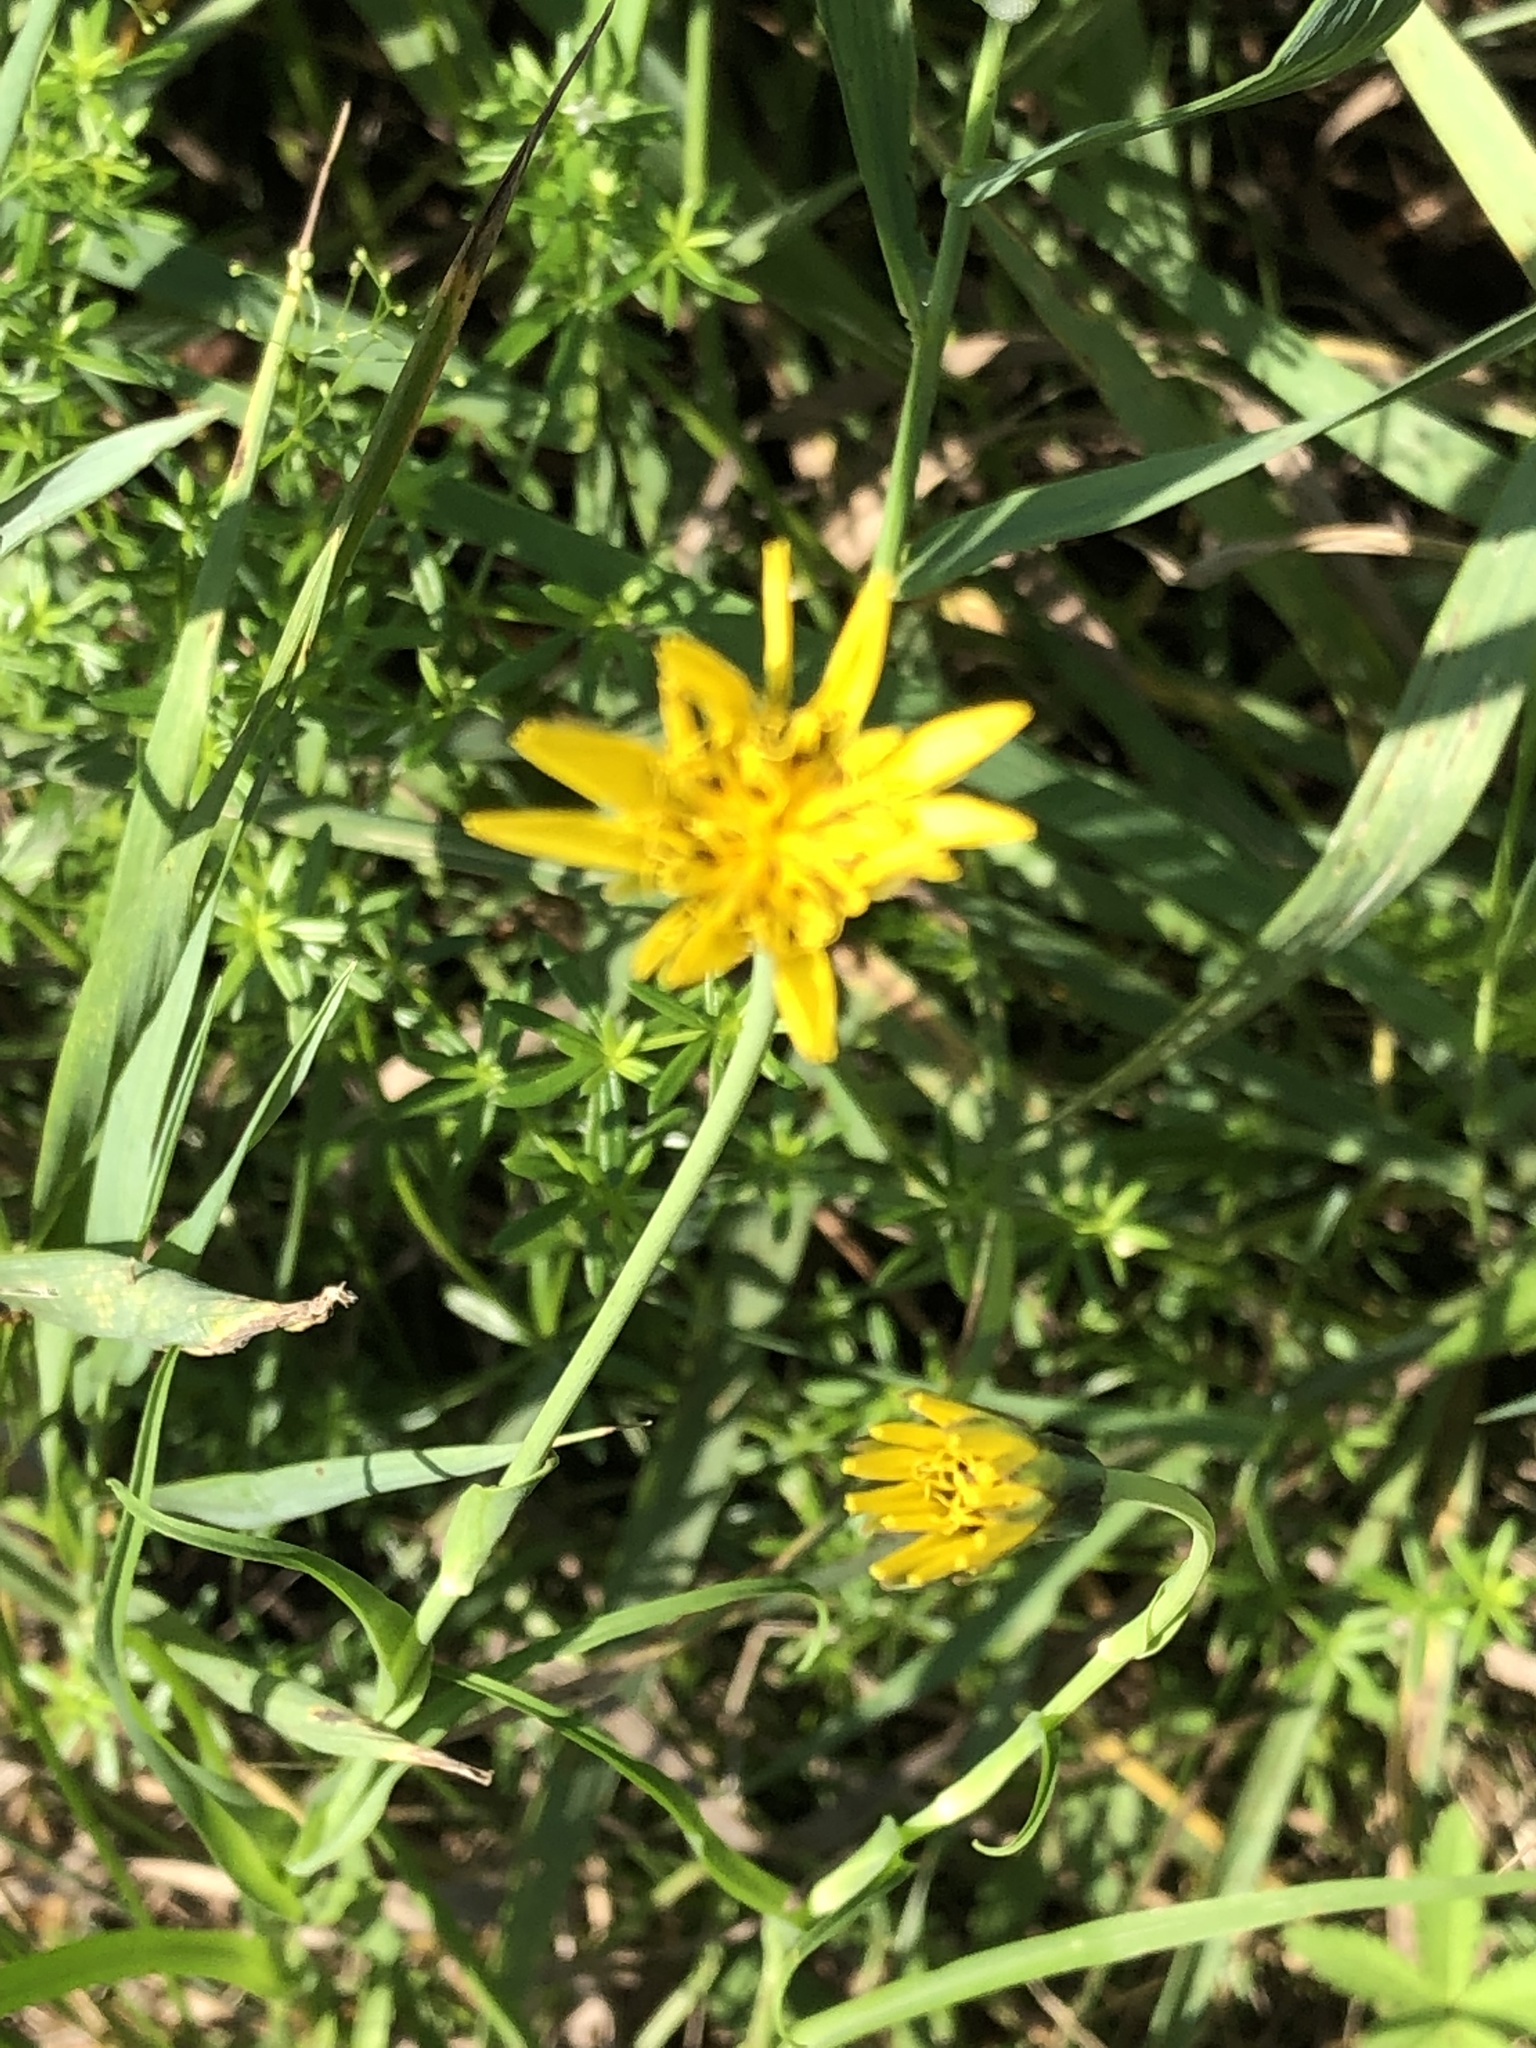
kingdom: Plantae
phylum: Tracheophyta
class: Magnoliopsida
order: Asterales
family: Asteraceae
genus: Tragopogon
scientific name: Tragopogon pratensis
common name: Goat's-beard
